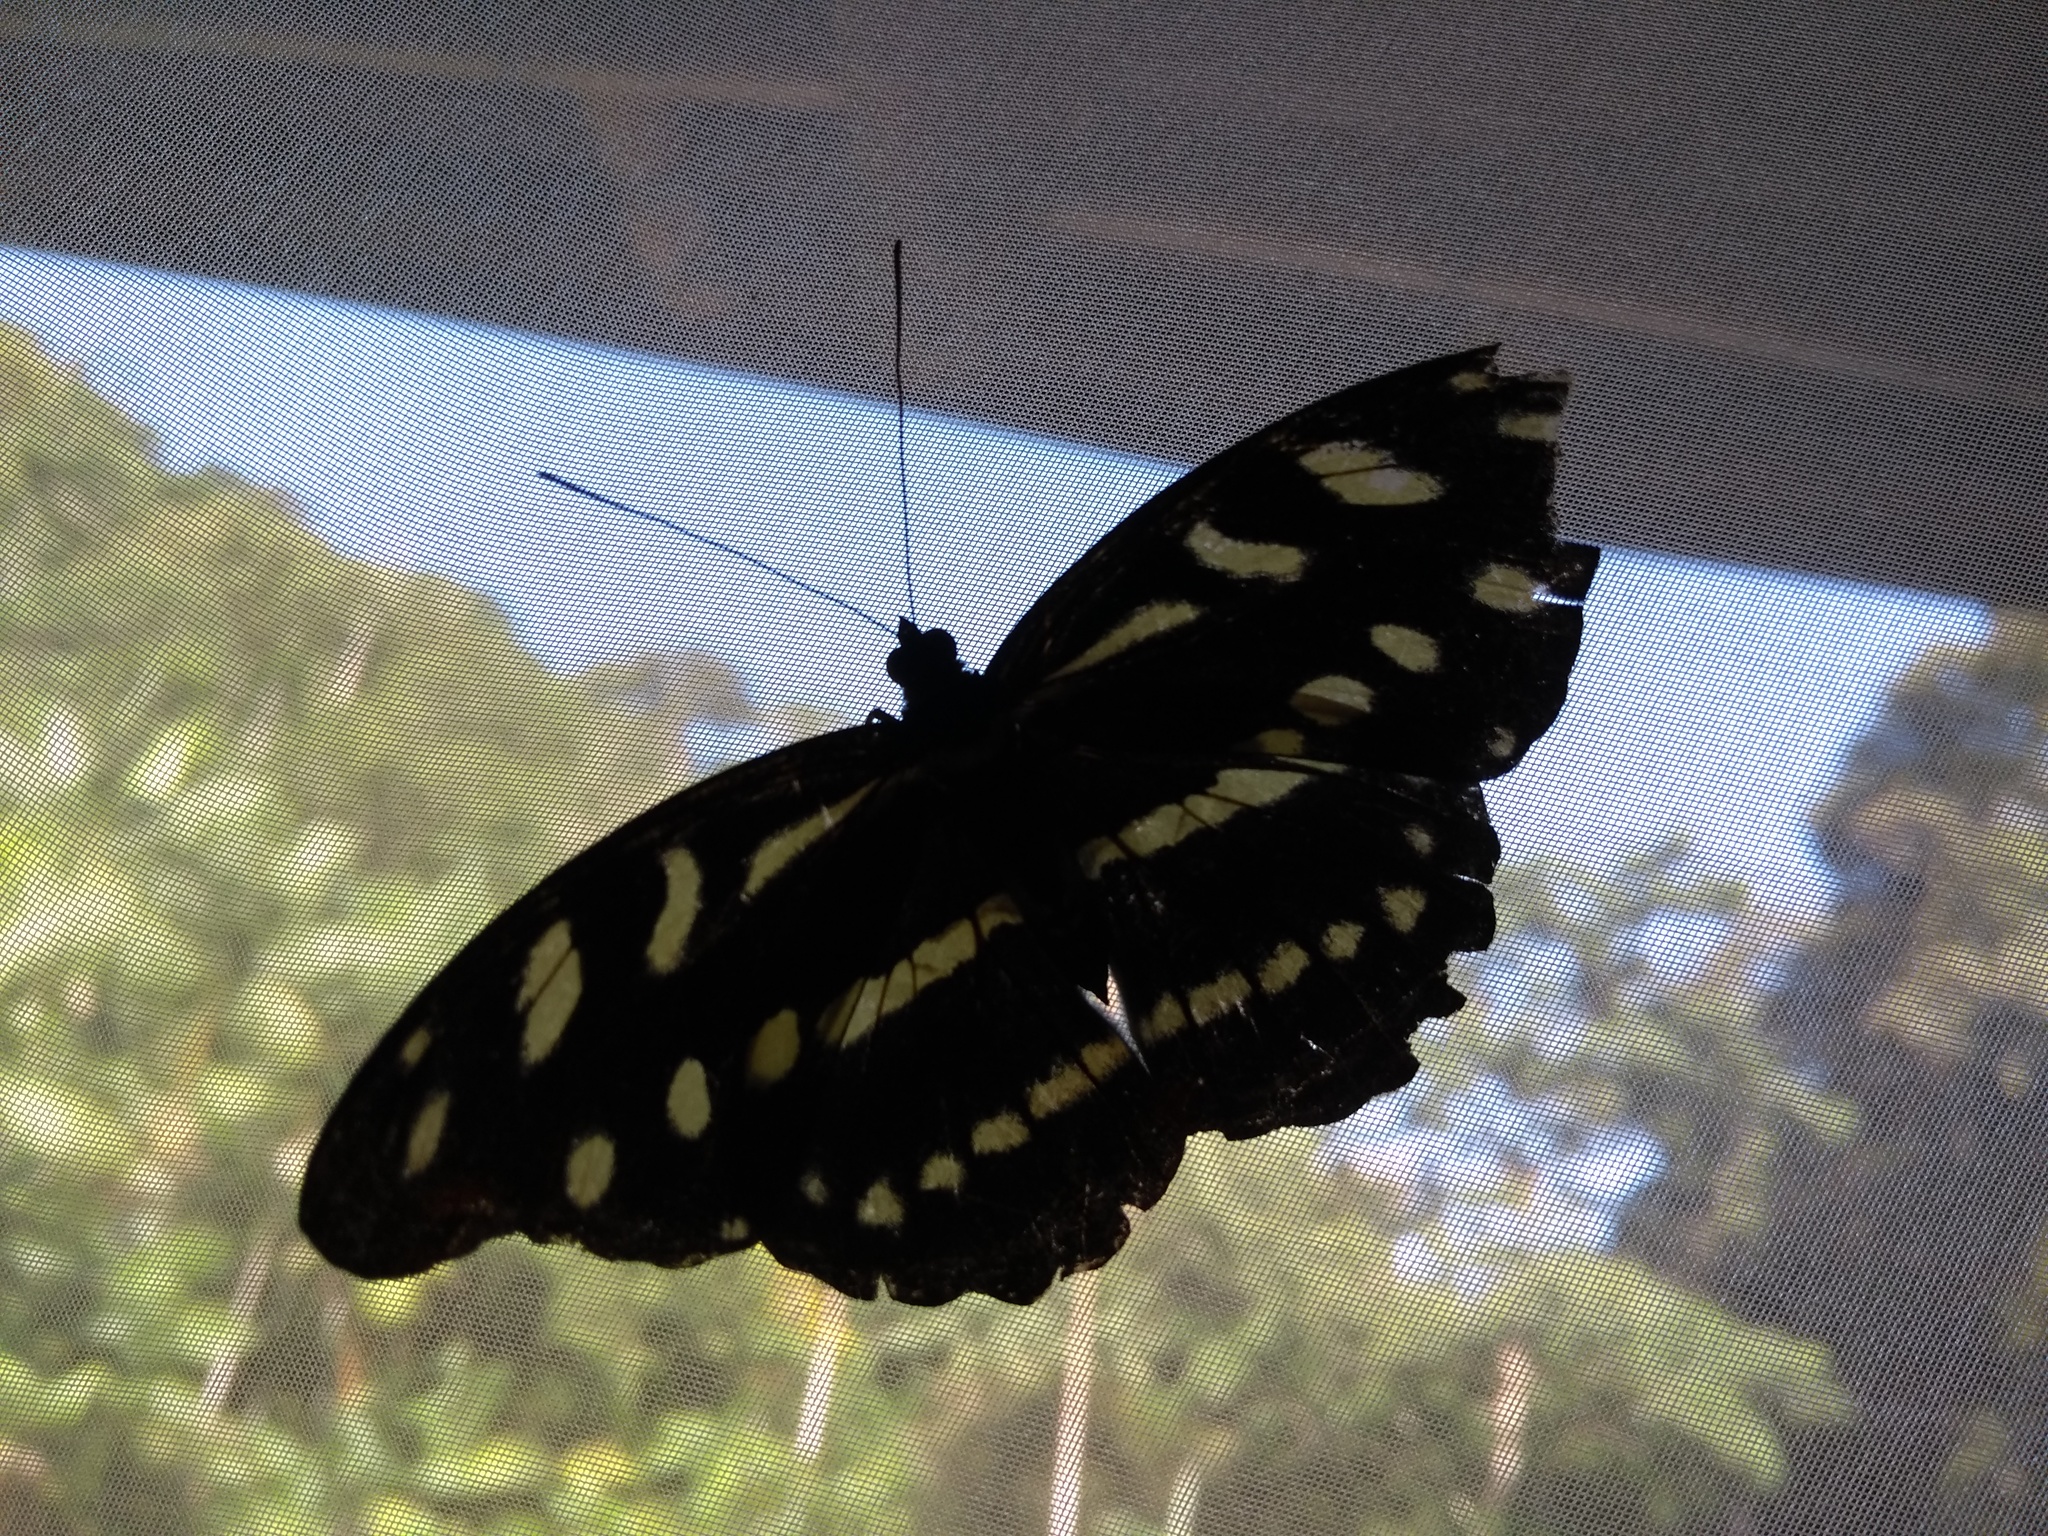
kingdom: Animalia
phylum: Arthropoda
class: Insecta
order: Lepidoptera
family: Nymphalidae
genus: Catonephele
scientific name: Catonephele acontius
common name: Unspotted firewing
